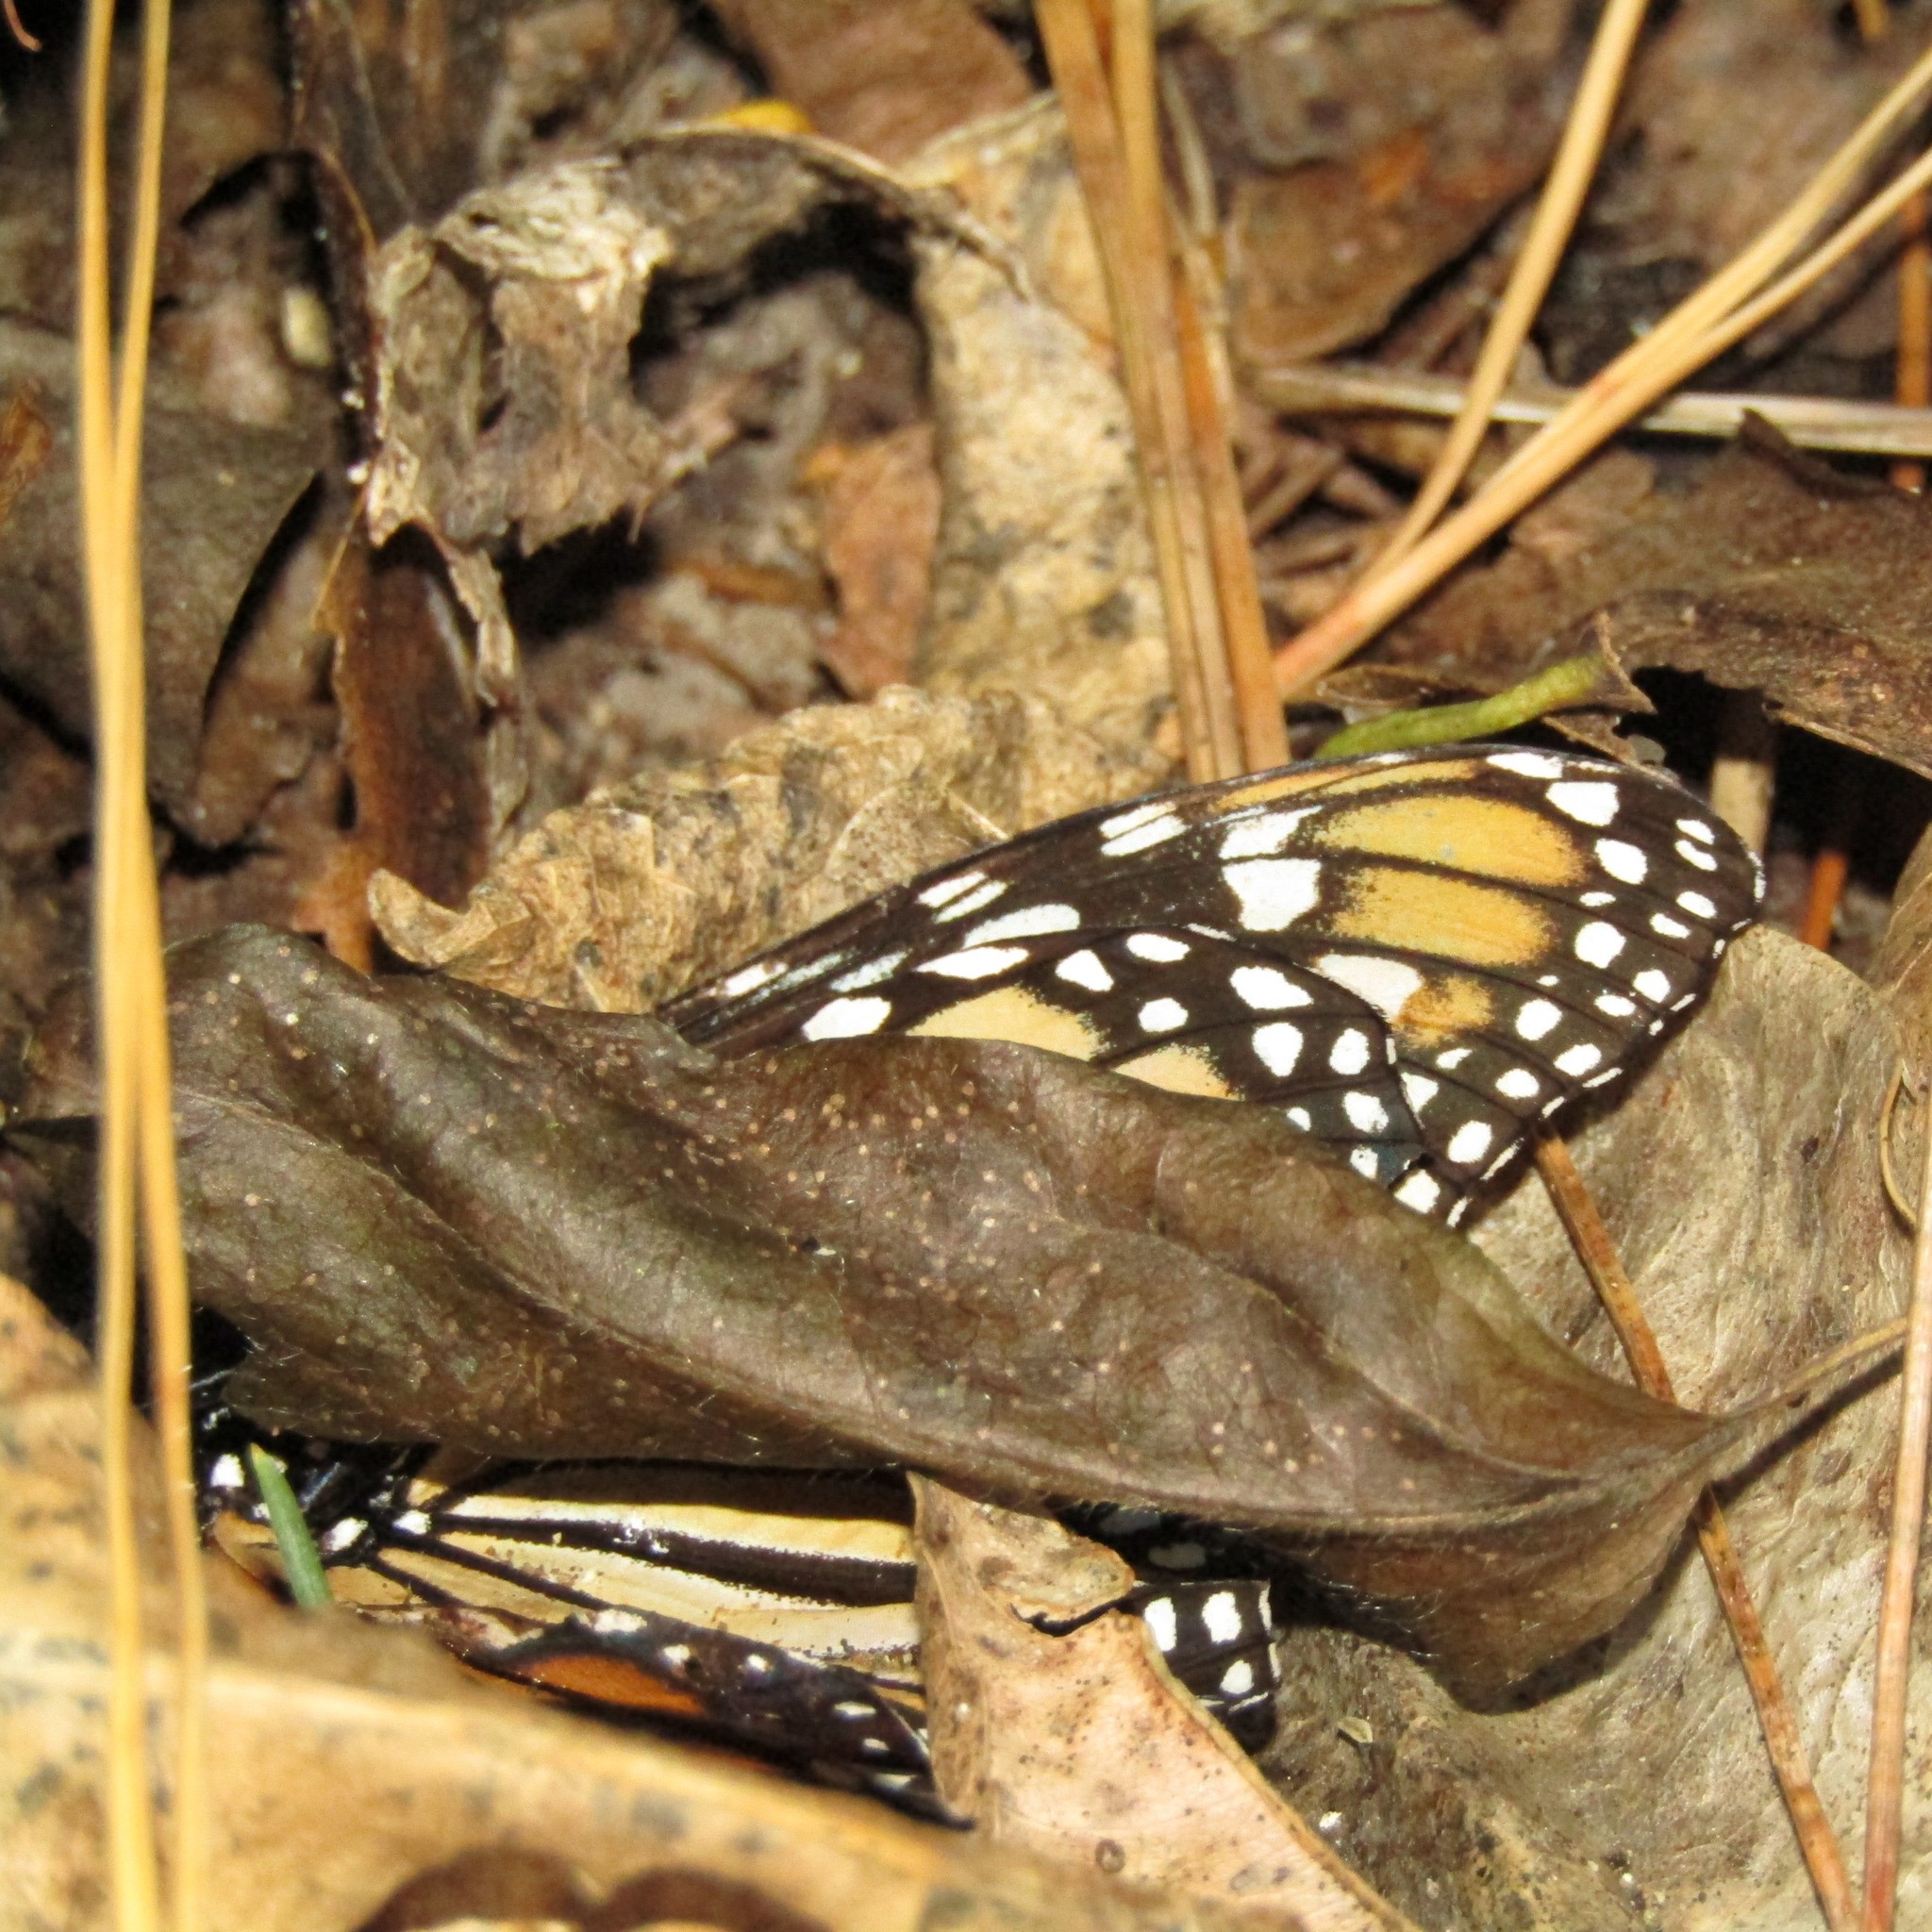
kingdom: Animalia
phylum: Arthropoda
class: Insecta
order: Lepidoptera
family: Nymphalidae
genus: Danaus
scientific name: Danaus plexippus
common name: Monarch
